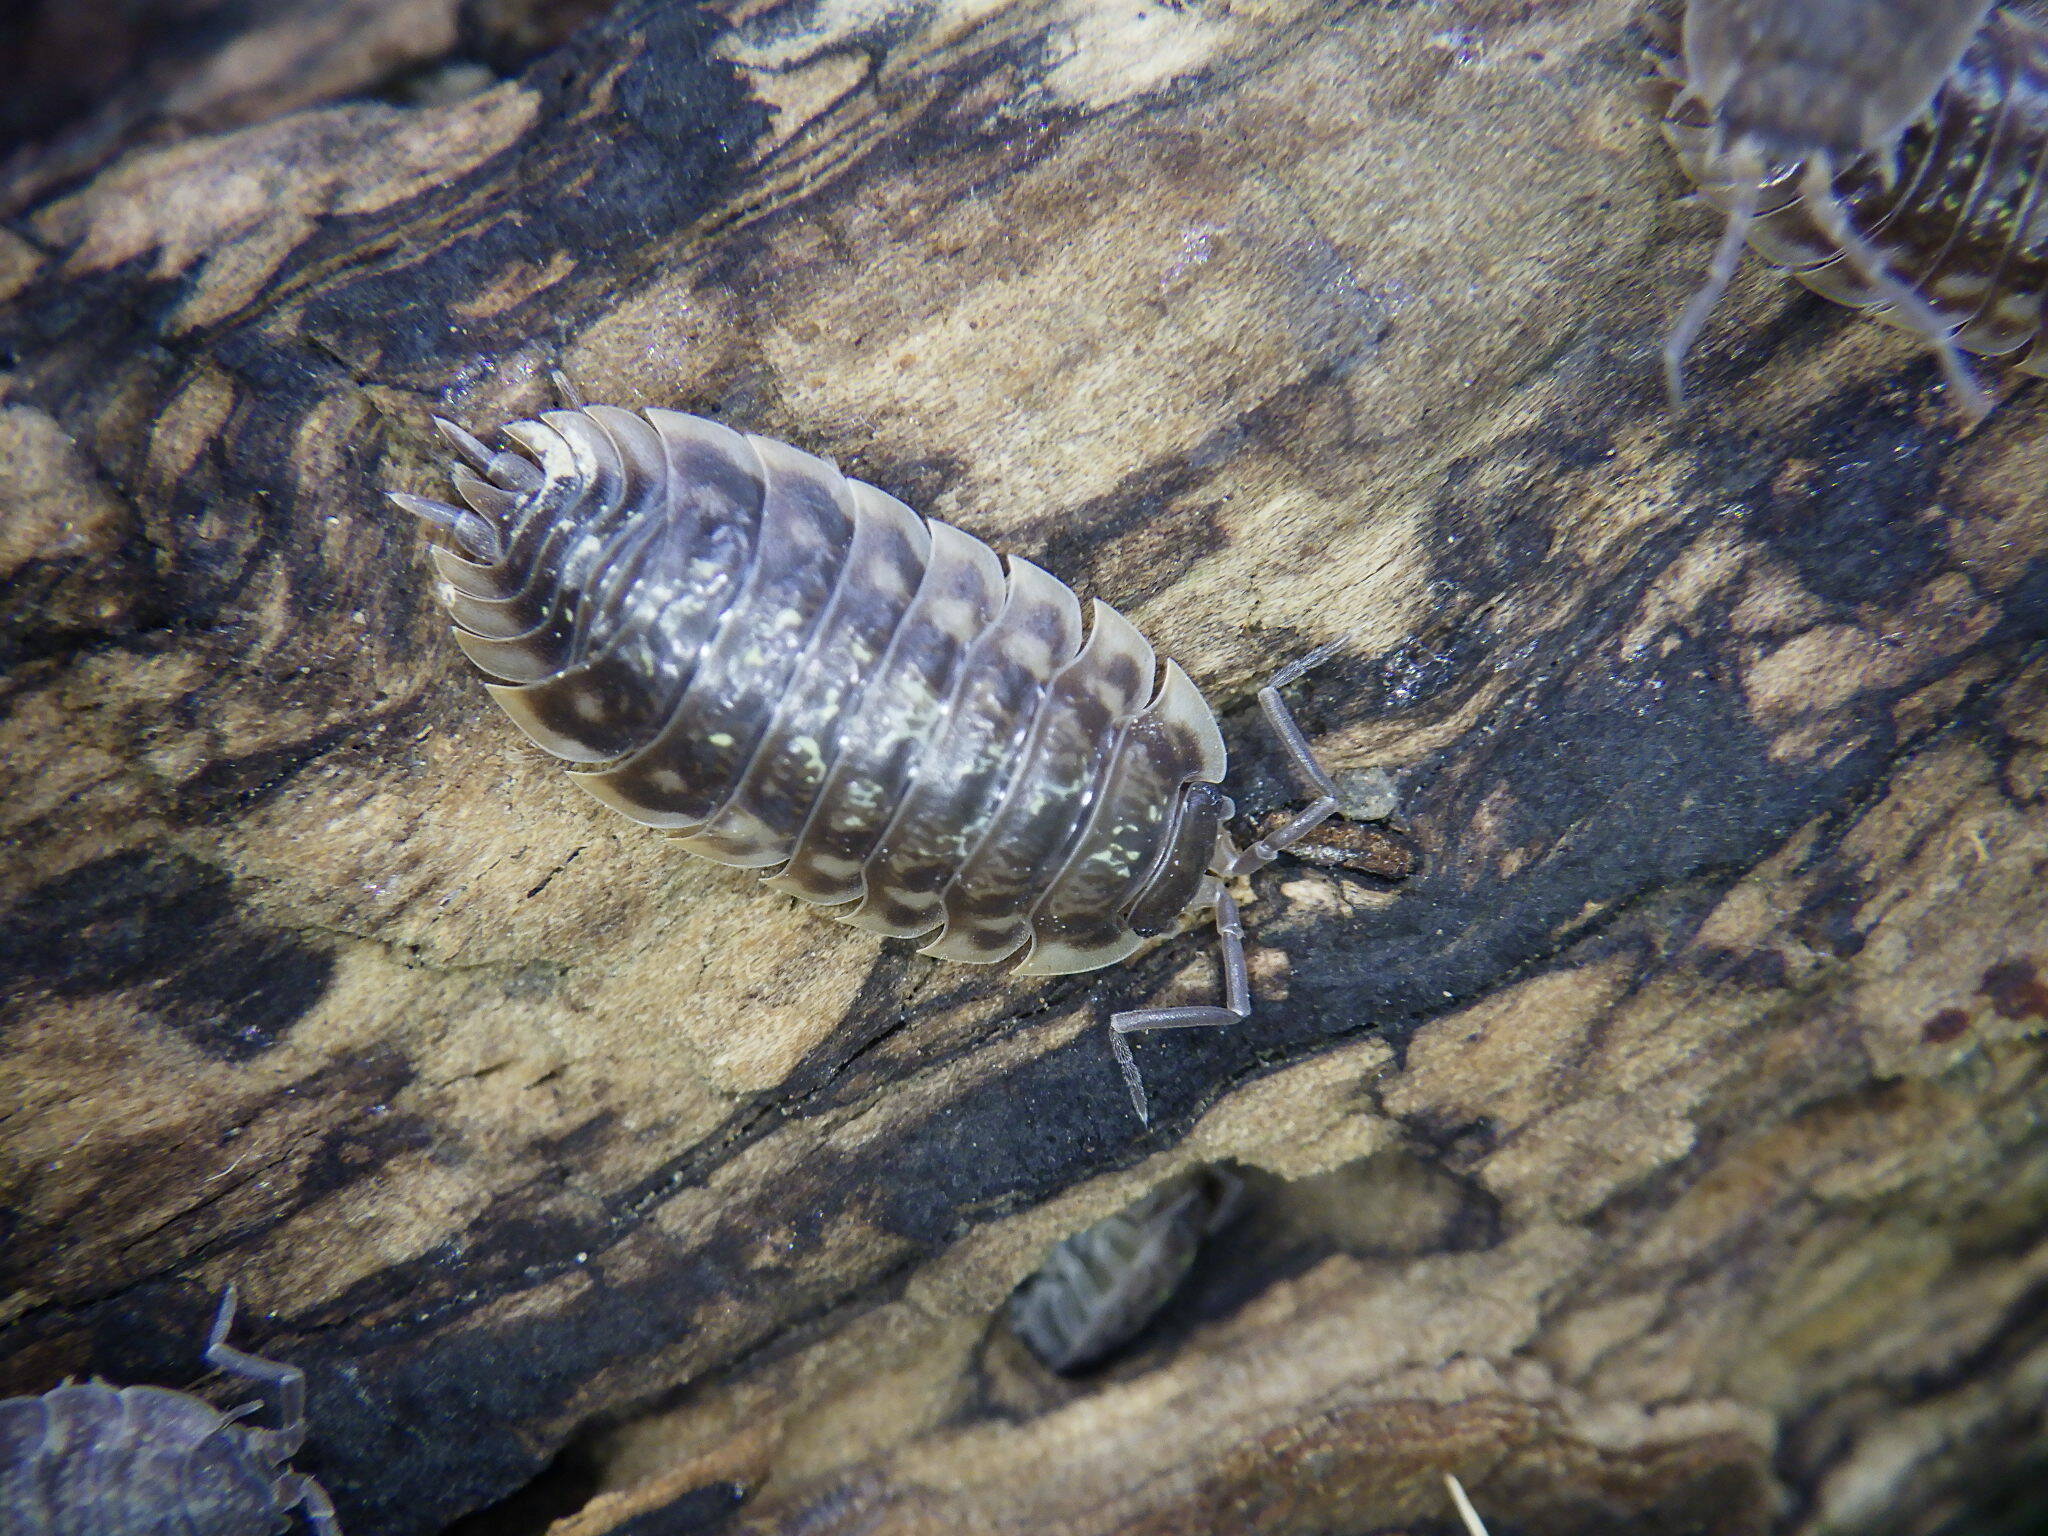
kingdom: Animalia
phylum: Arthropoda
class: Malacostraca
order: Isopoda
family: Oniscidae
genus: Oniscus
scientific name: Oniscus asellus
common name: Common shiny woodlouse
